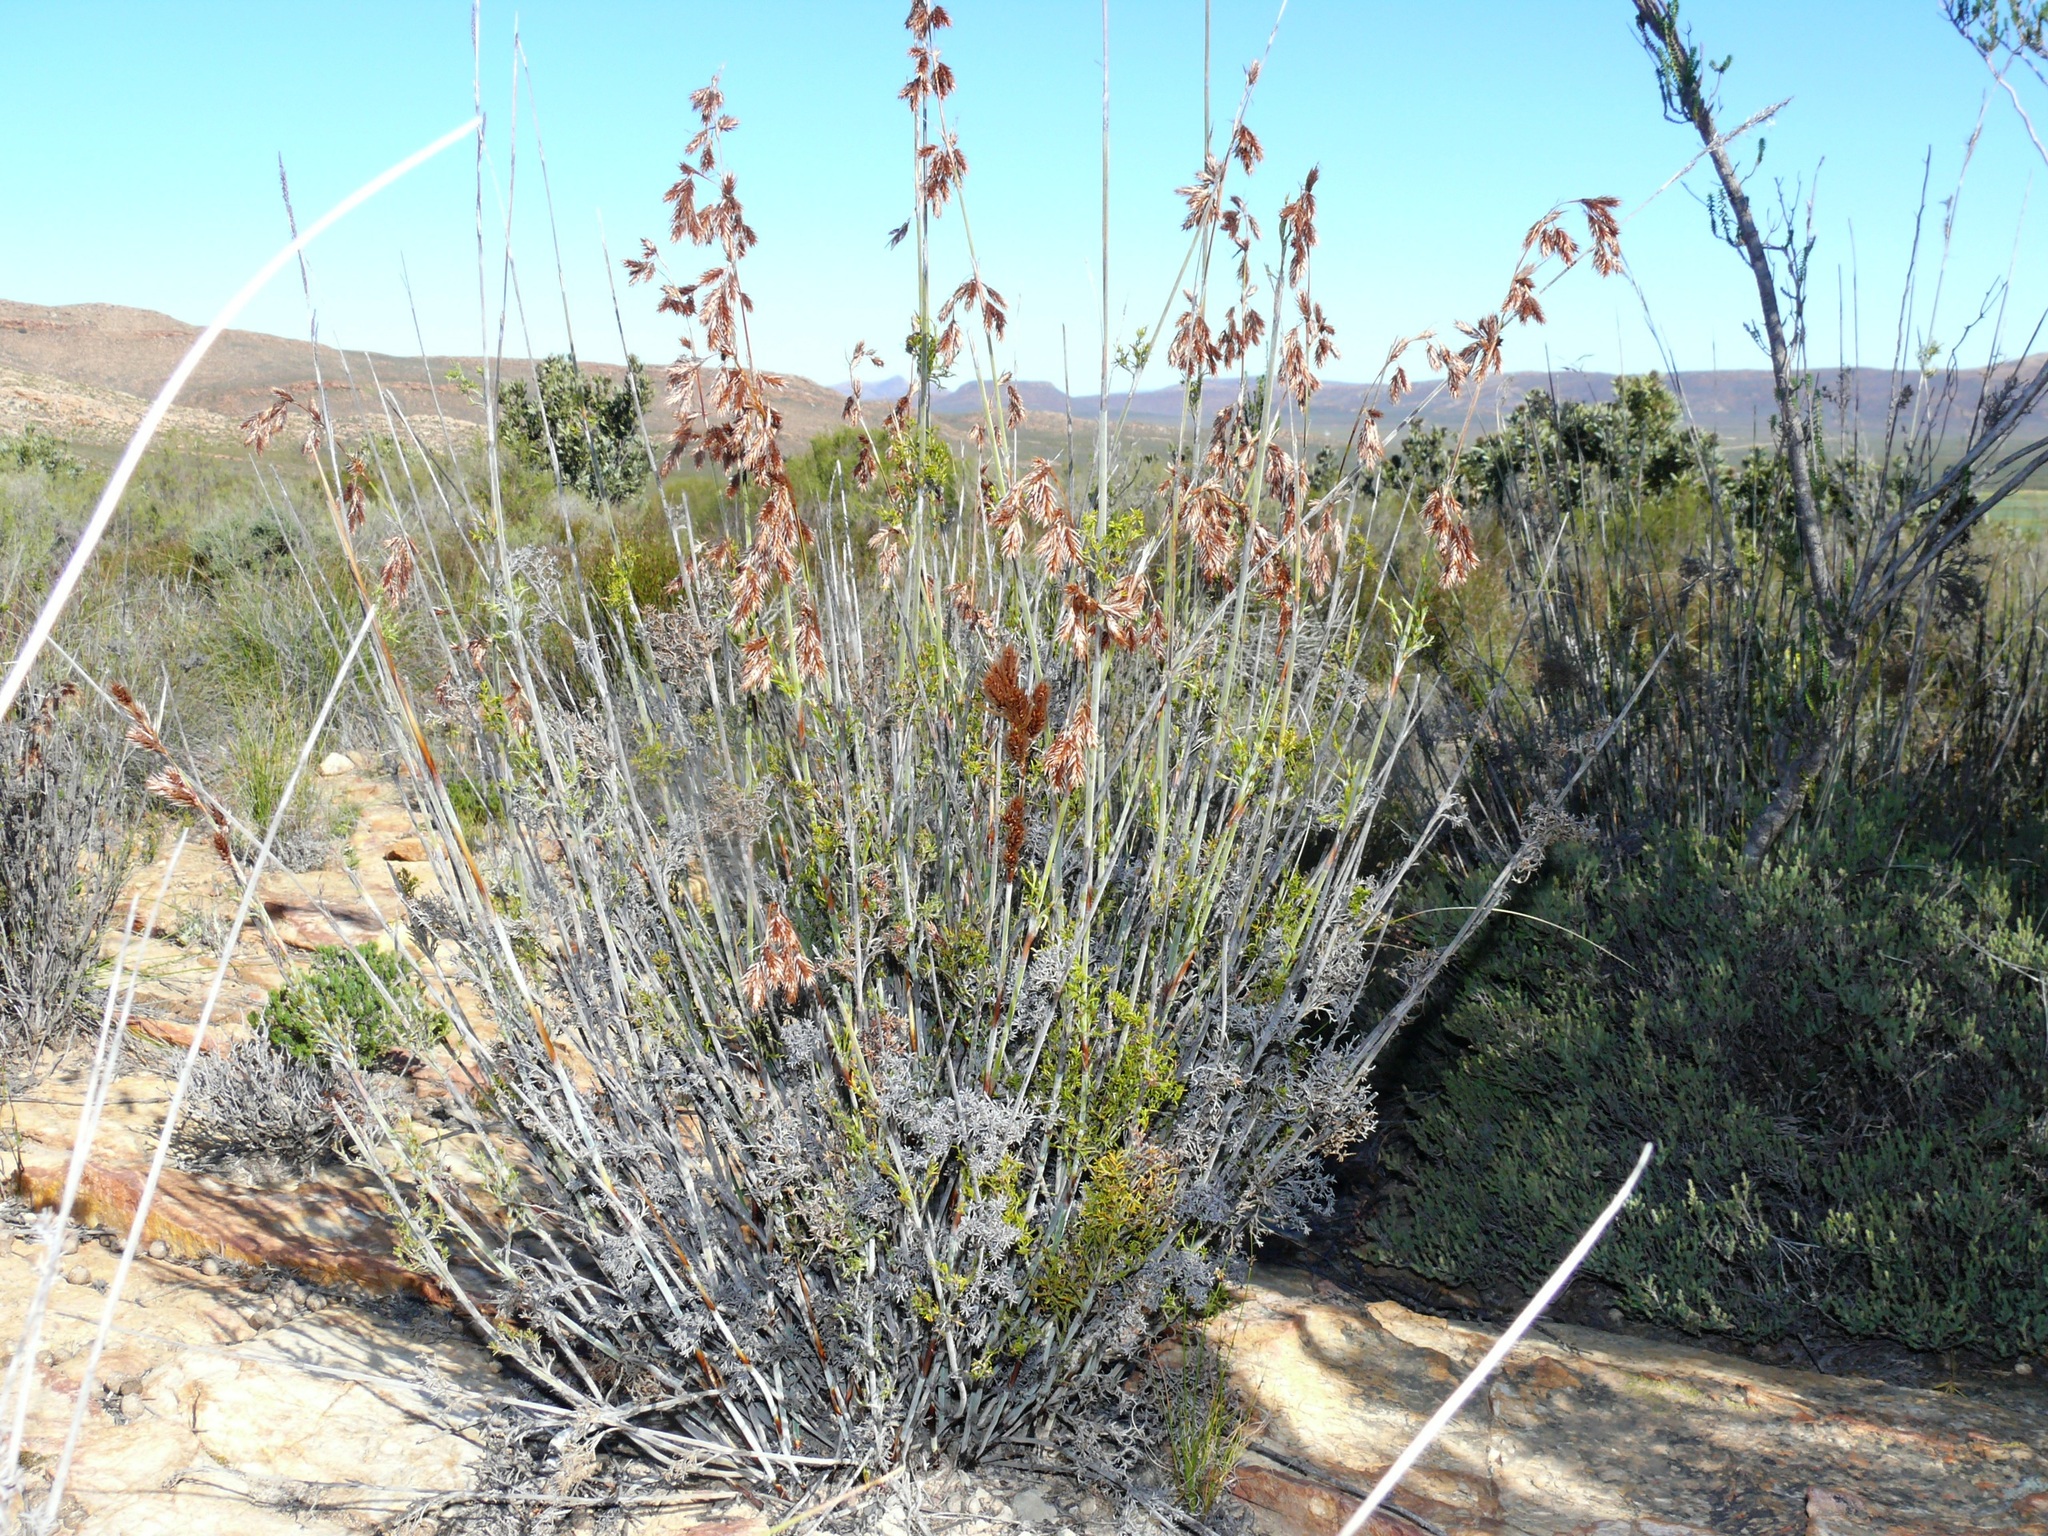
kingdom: Plantae
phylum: Tracheophyta
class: Liliopsida
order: Poales
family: Restionaceae
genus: Thamnochortus
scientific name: Thamnochortus rigidus
